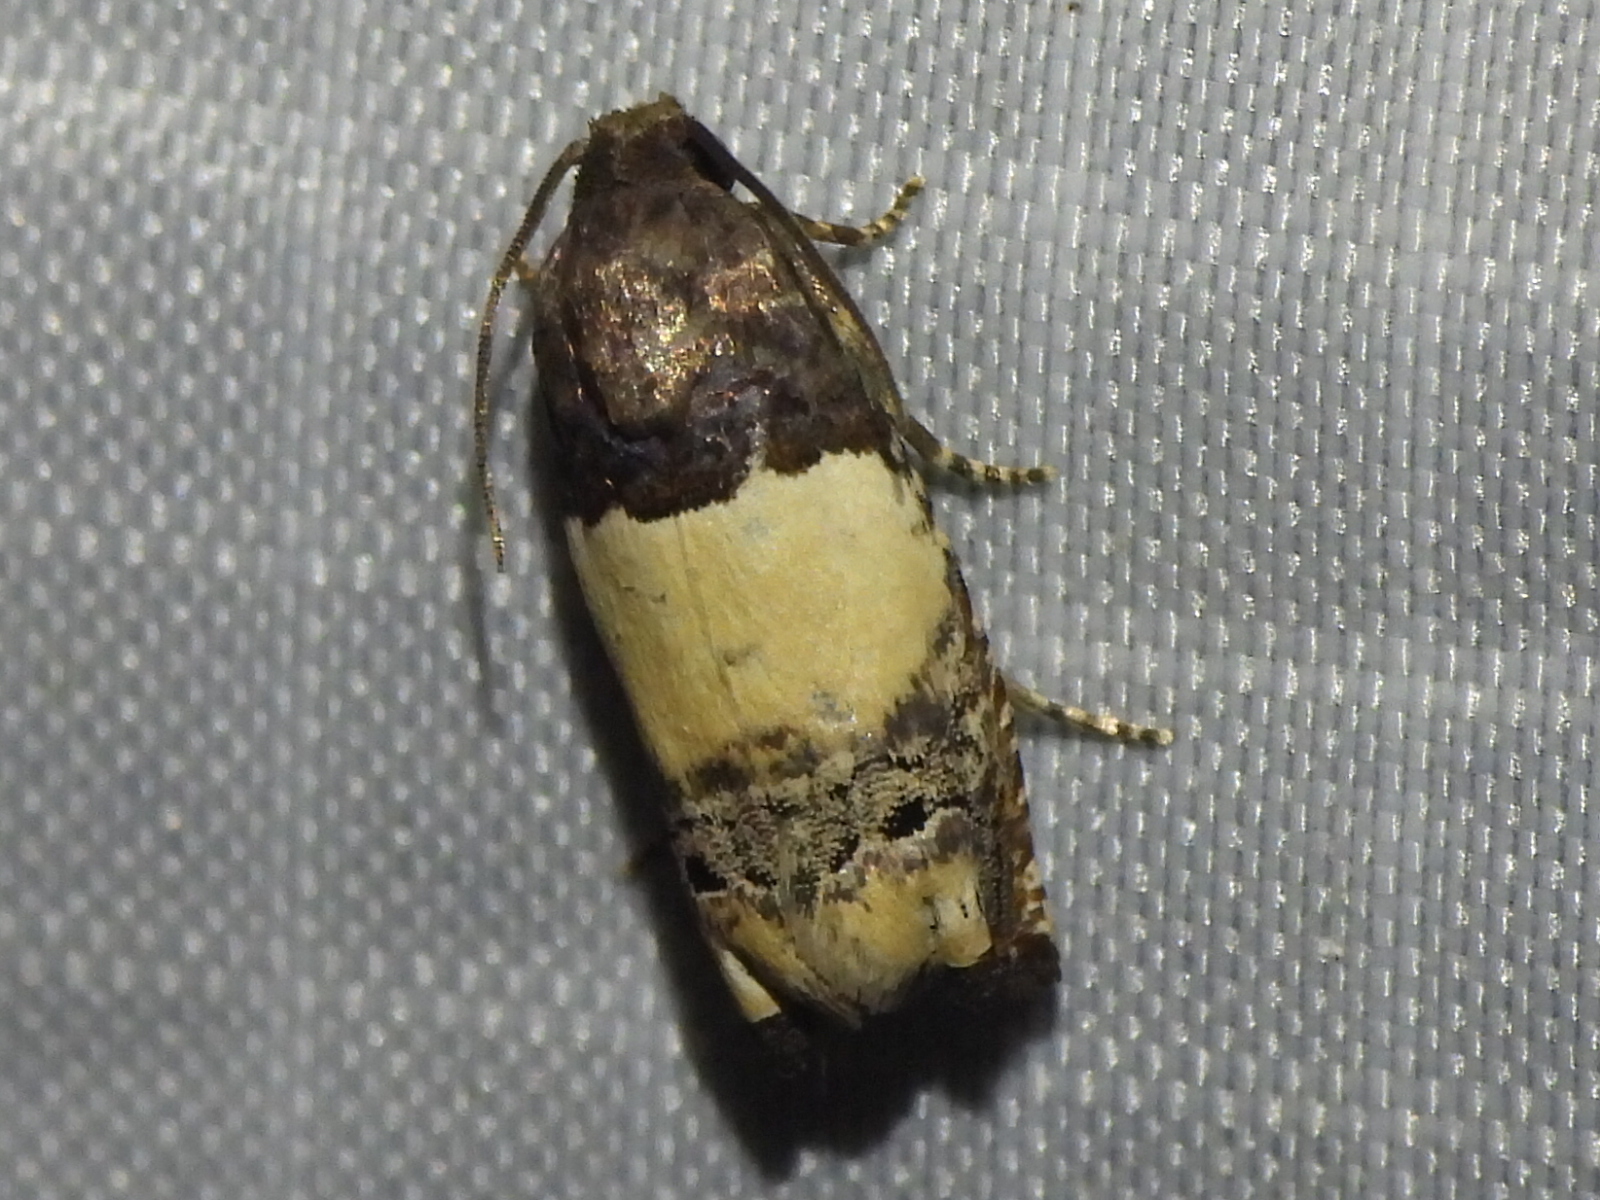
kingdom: Animalia
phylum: Arthropoda
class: Insecta
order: Lepidoptera
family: Tortricidae
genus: Epiblema
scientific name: Epiblema scudderiana
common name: Goldenrod gall moth
